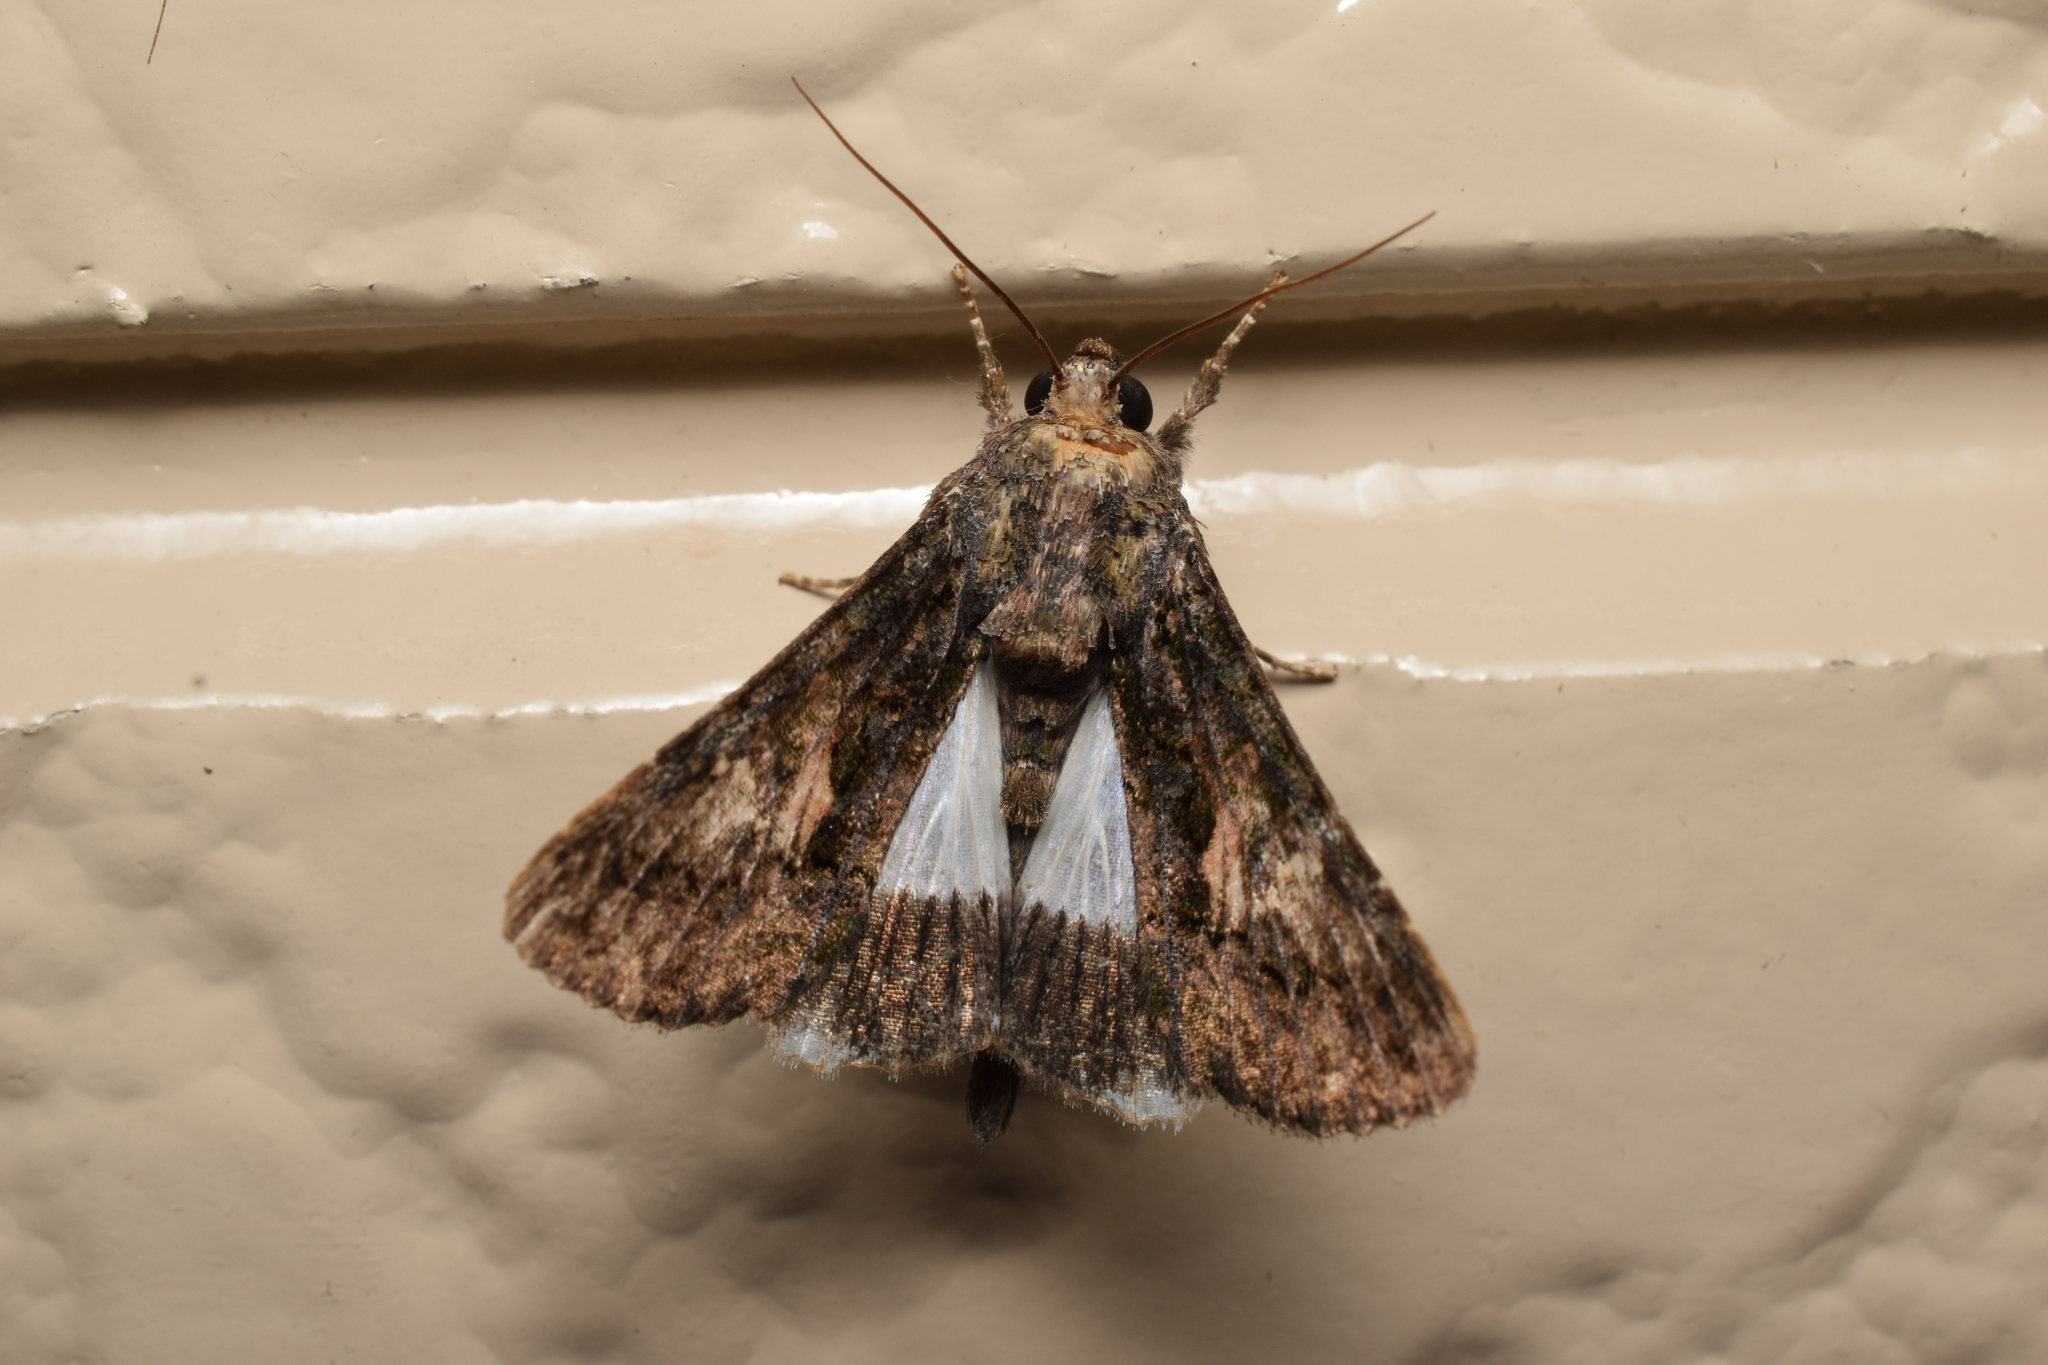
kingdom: Animalia
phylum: Arthropoda
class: Insecta
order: Lepidoptera
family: Noctuidae
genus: Aedia
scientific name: Aedia leucomelas
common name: Sorcerer
